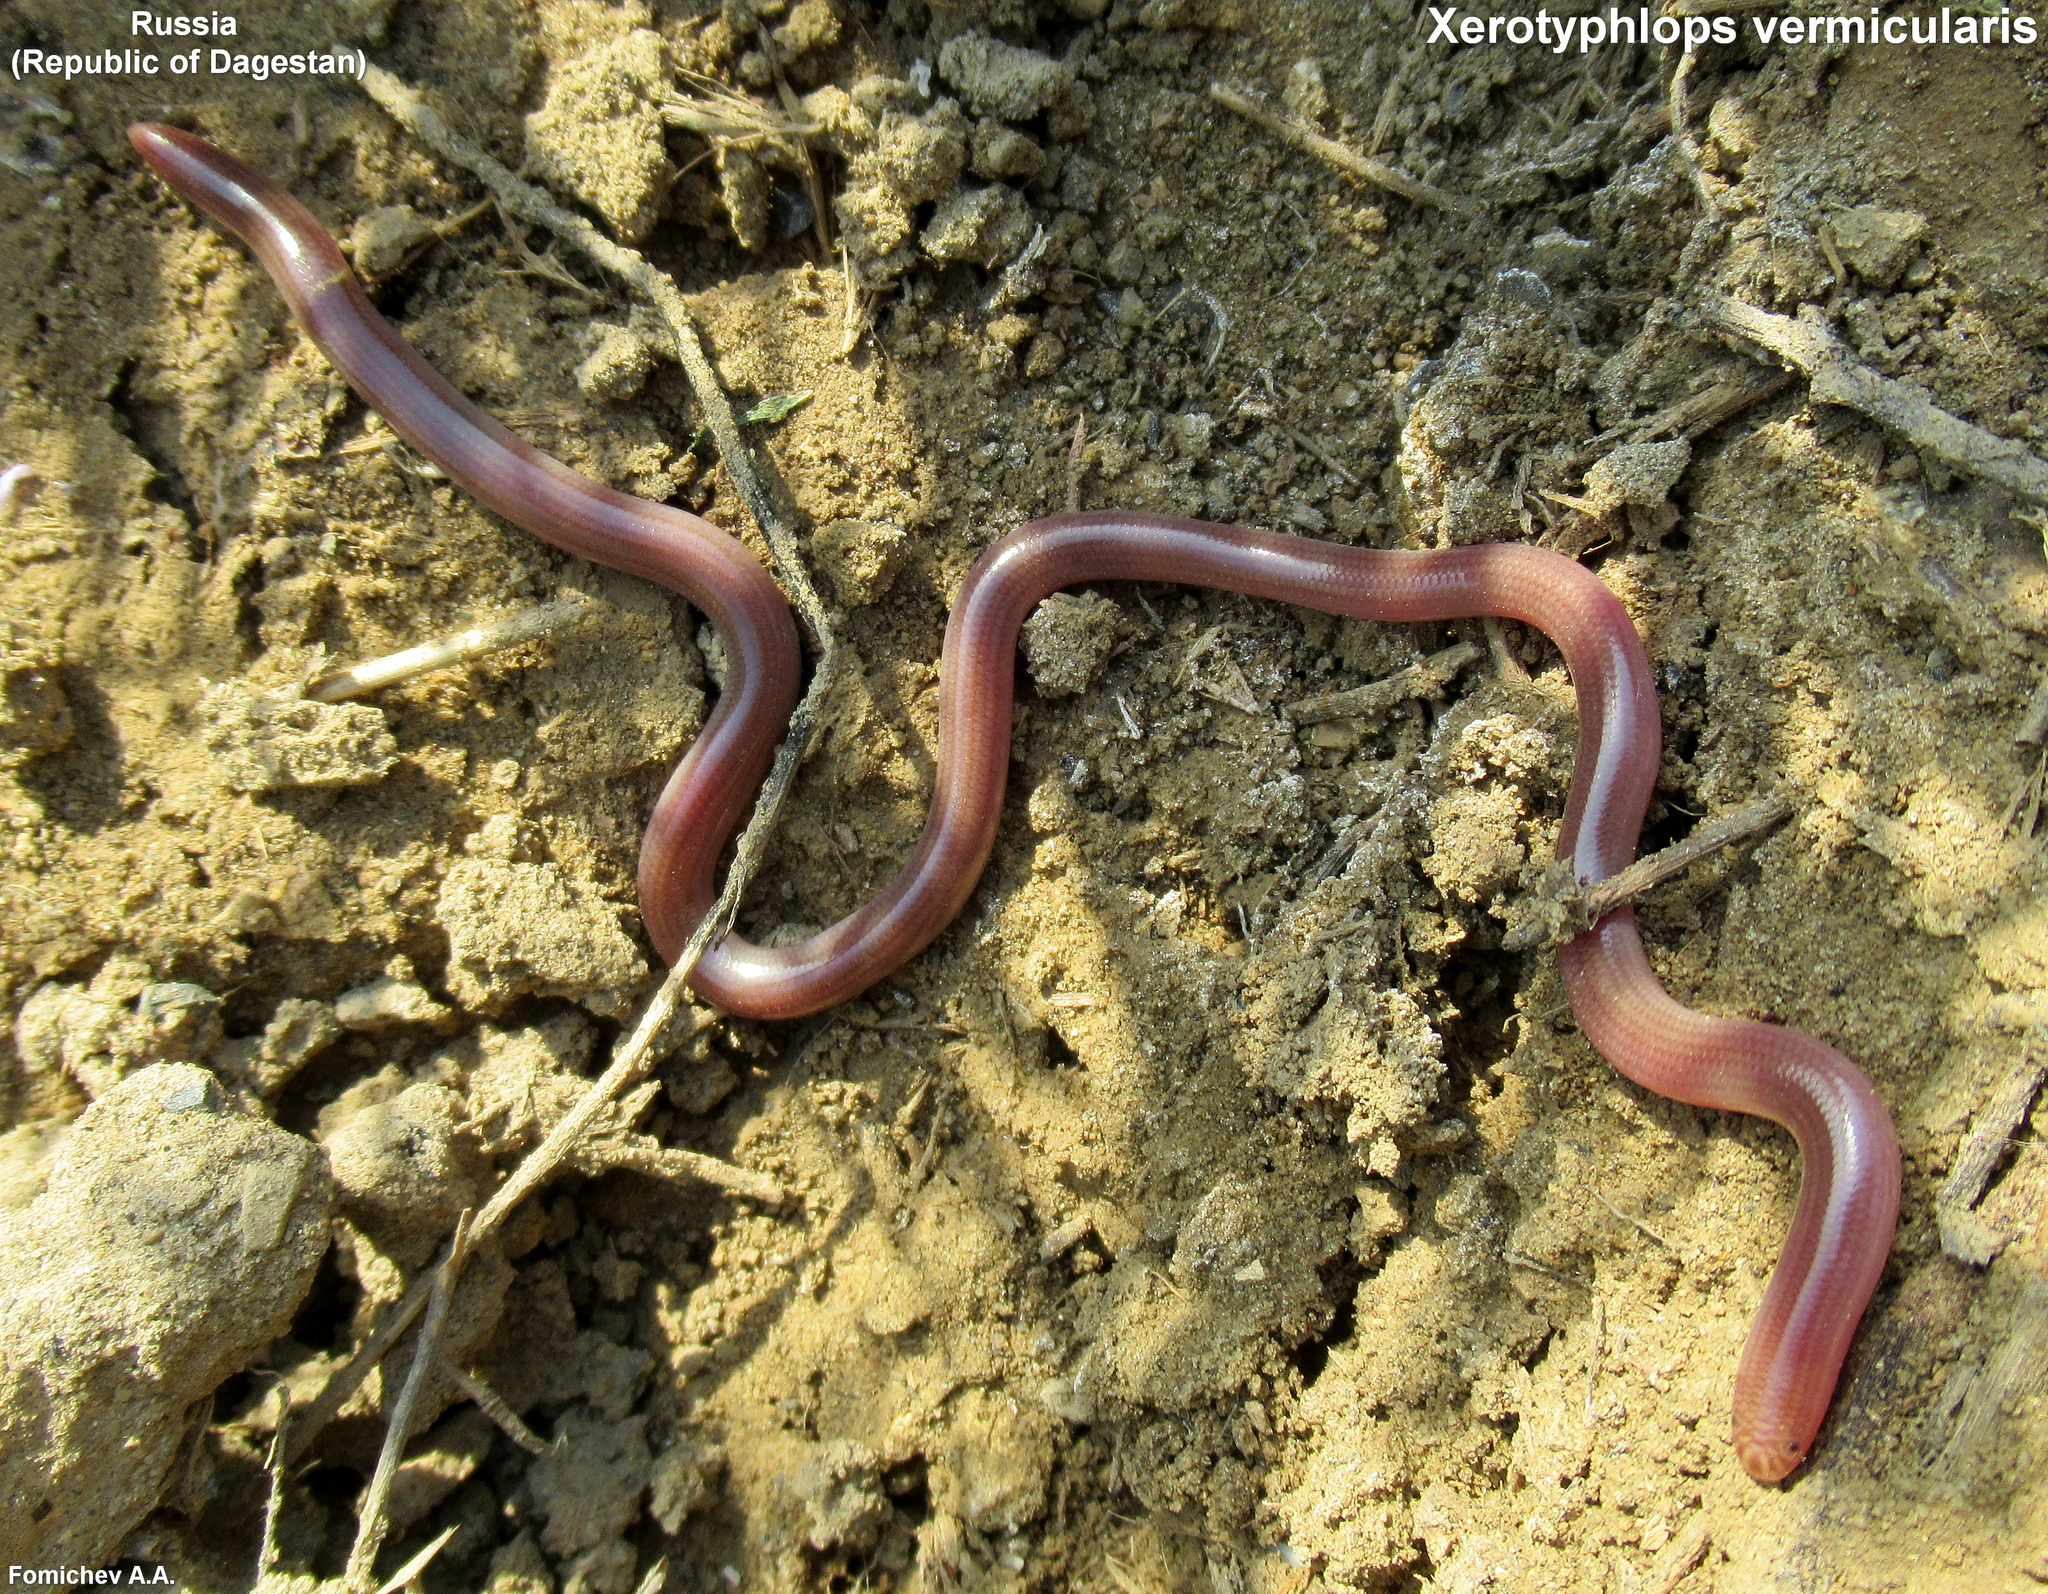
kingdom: Animalia
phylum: Chordata
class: Squamata
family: Typhlopidae
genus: Xerotyphlops
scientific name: Xerotyphlops vermicularis
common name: Eurasian blind snake
